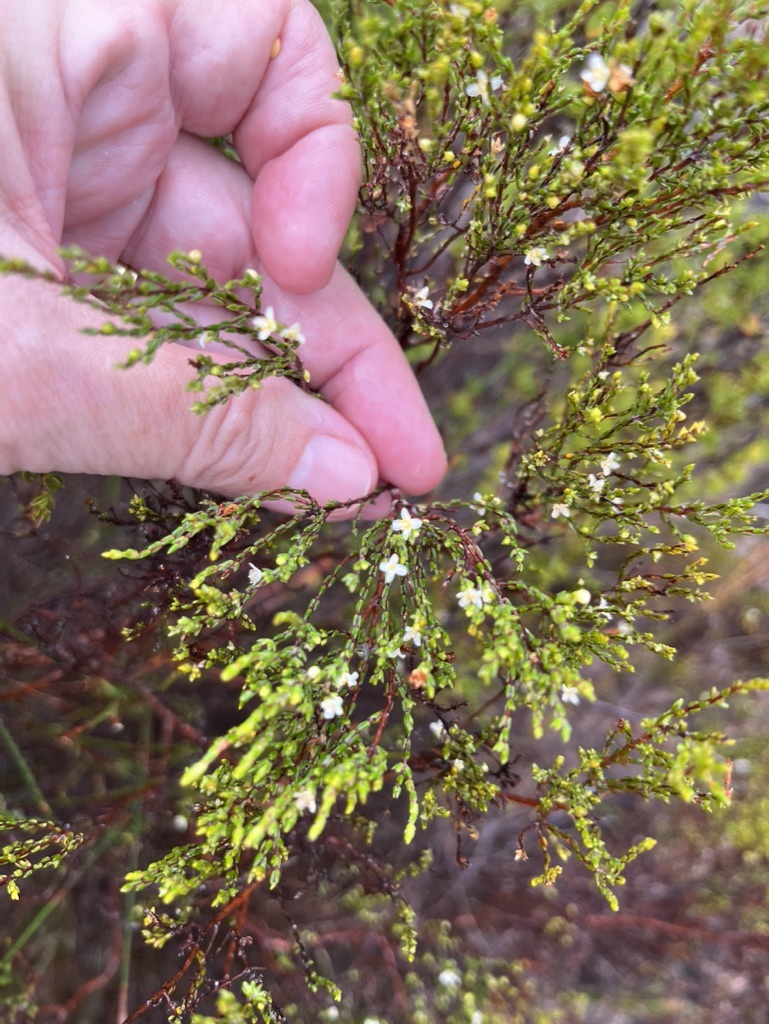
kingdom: Plantae
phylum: Tracheophyta
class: Magnoliopsida
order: Malvales
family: Thymelaeaceae
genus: Lachnaea
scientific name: Lachnaea axillaris
